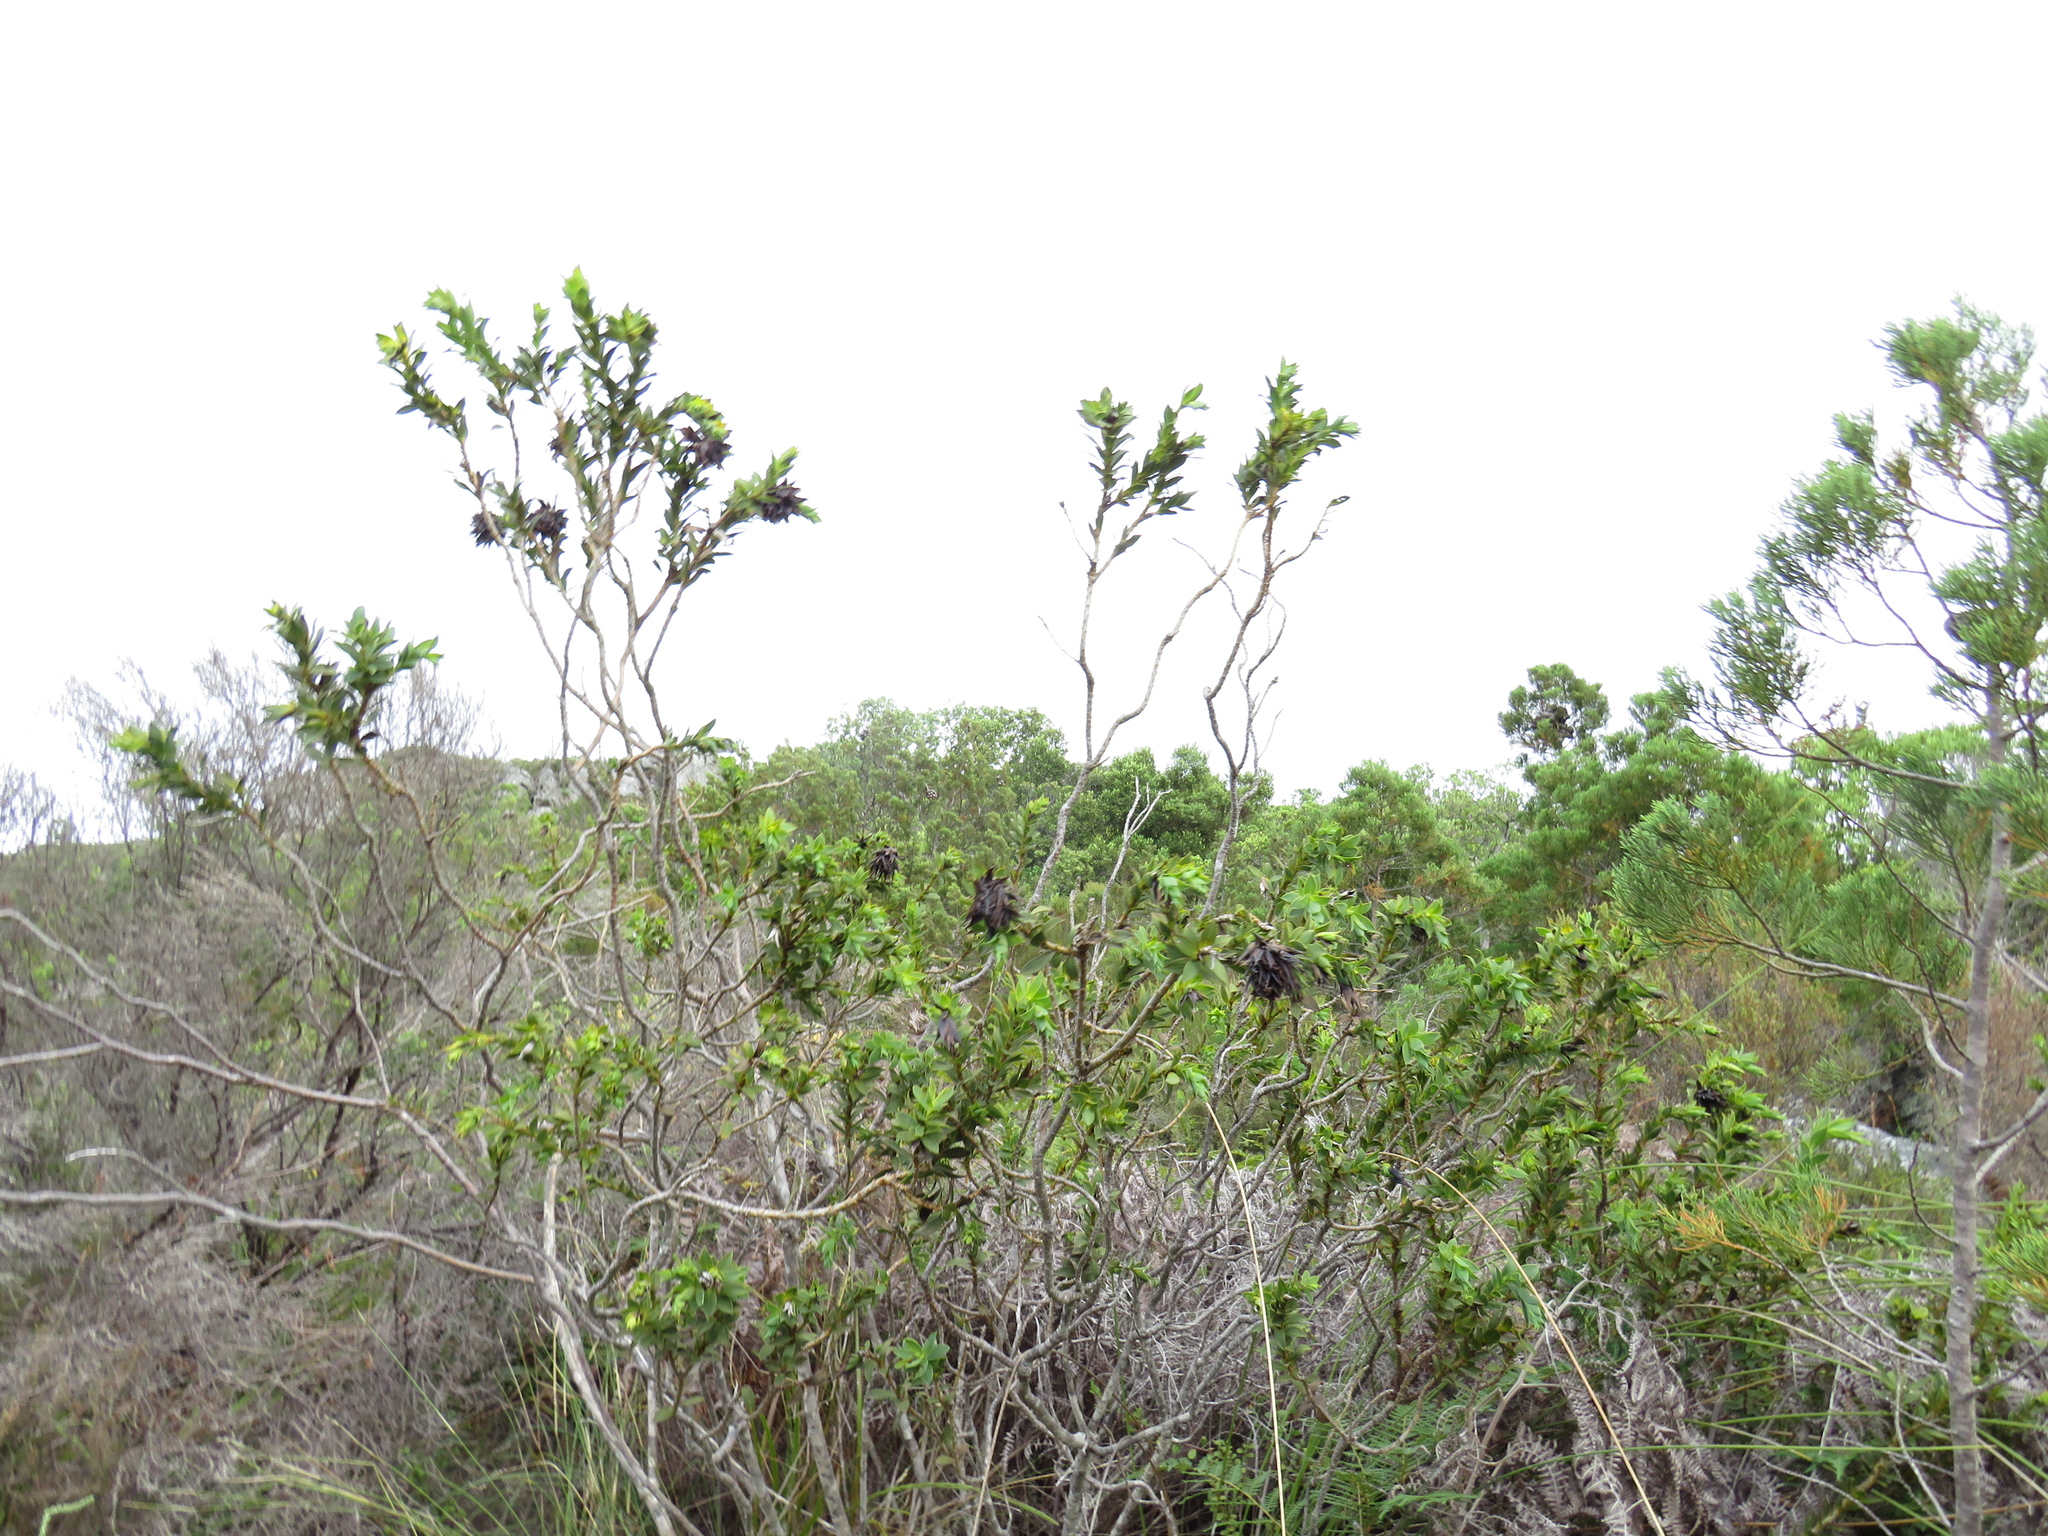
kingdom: Plantae
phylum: Tracheophyta
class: Magnoliopsida
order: Fabales
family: Fabaceae
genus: Liparia
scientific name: Liparia splendens
